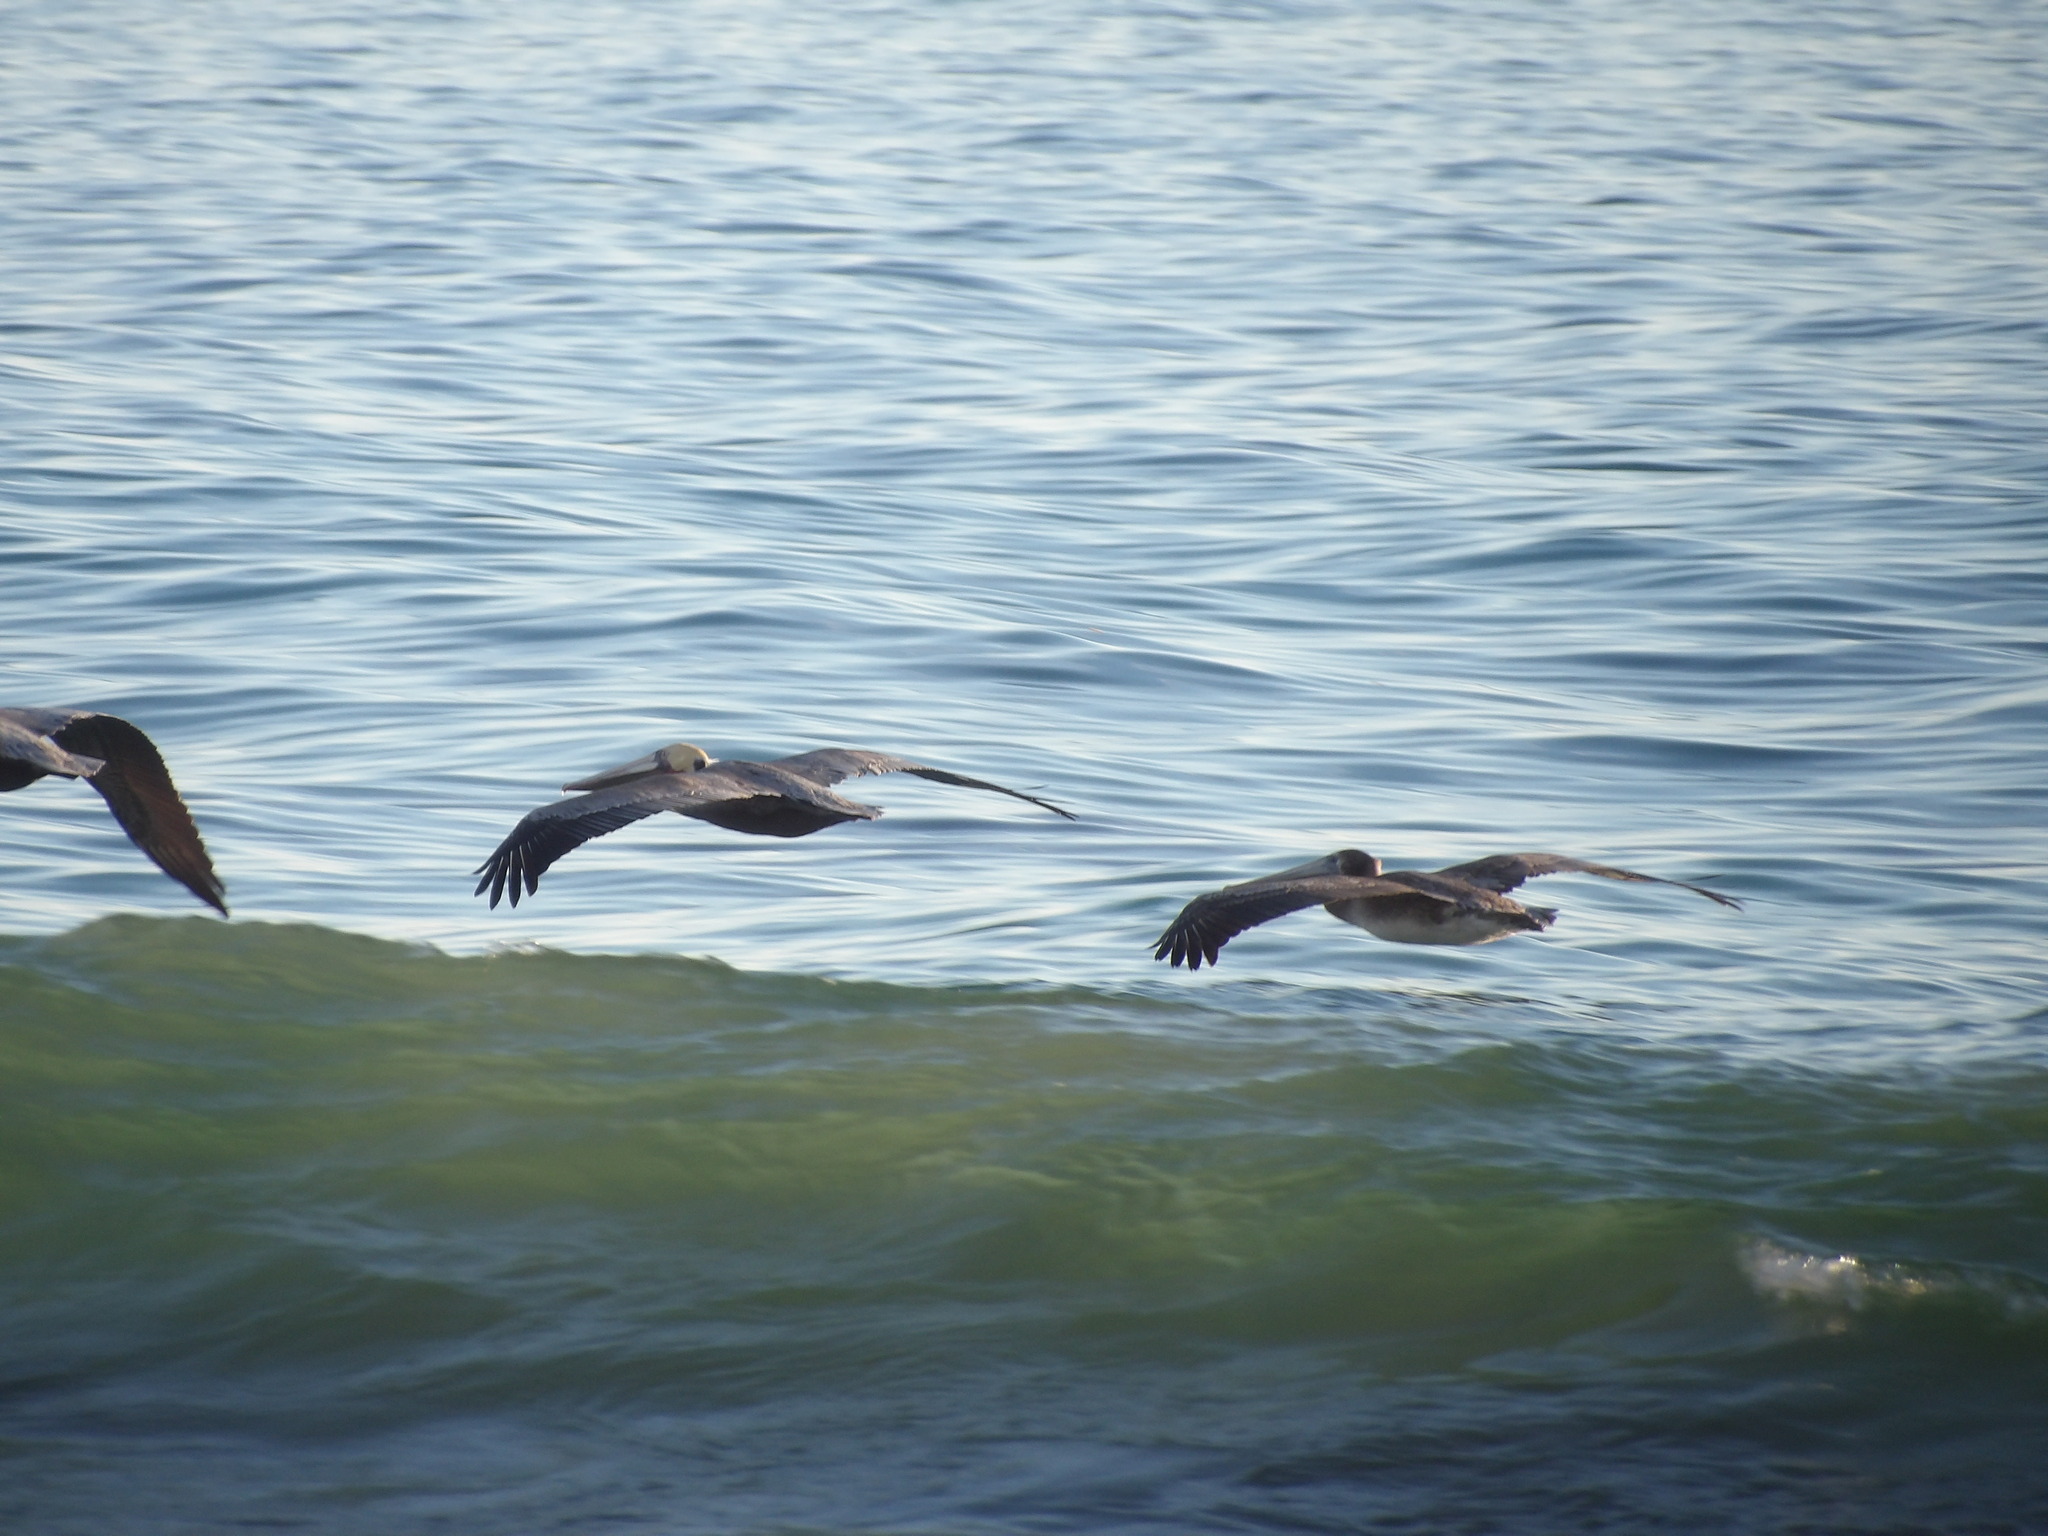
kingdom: Animalia
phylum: Chordata
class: Aves
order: Pelecaniformes
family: Pelecanidae
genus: Pelecanus
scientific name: Pelecanus occidentalis
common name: Brown pelican
